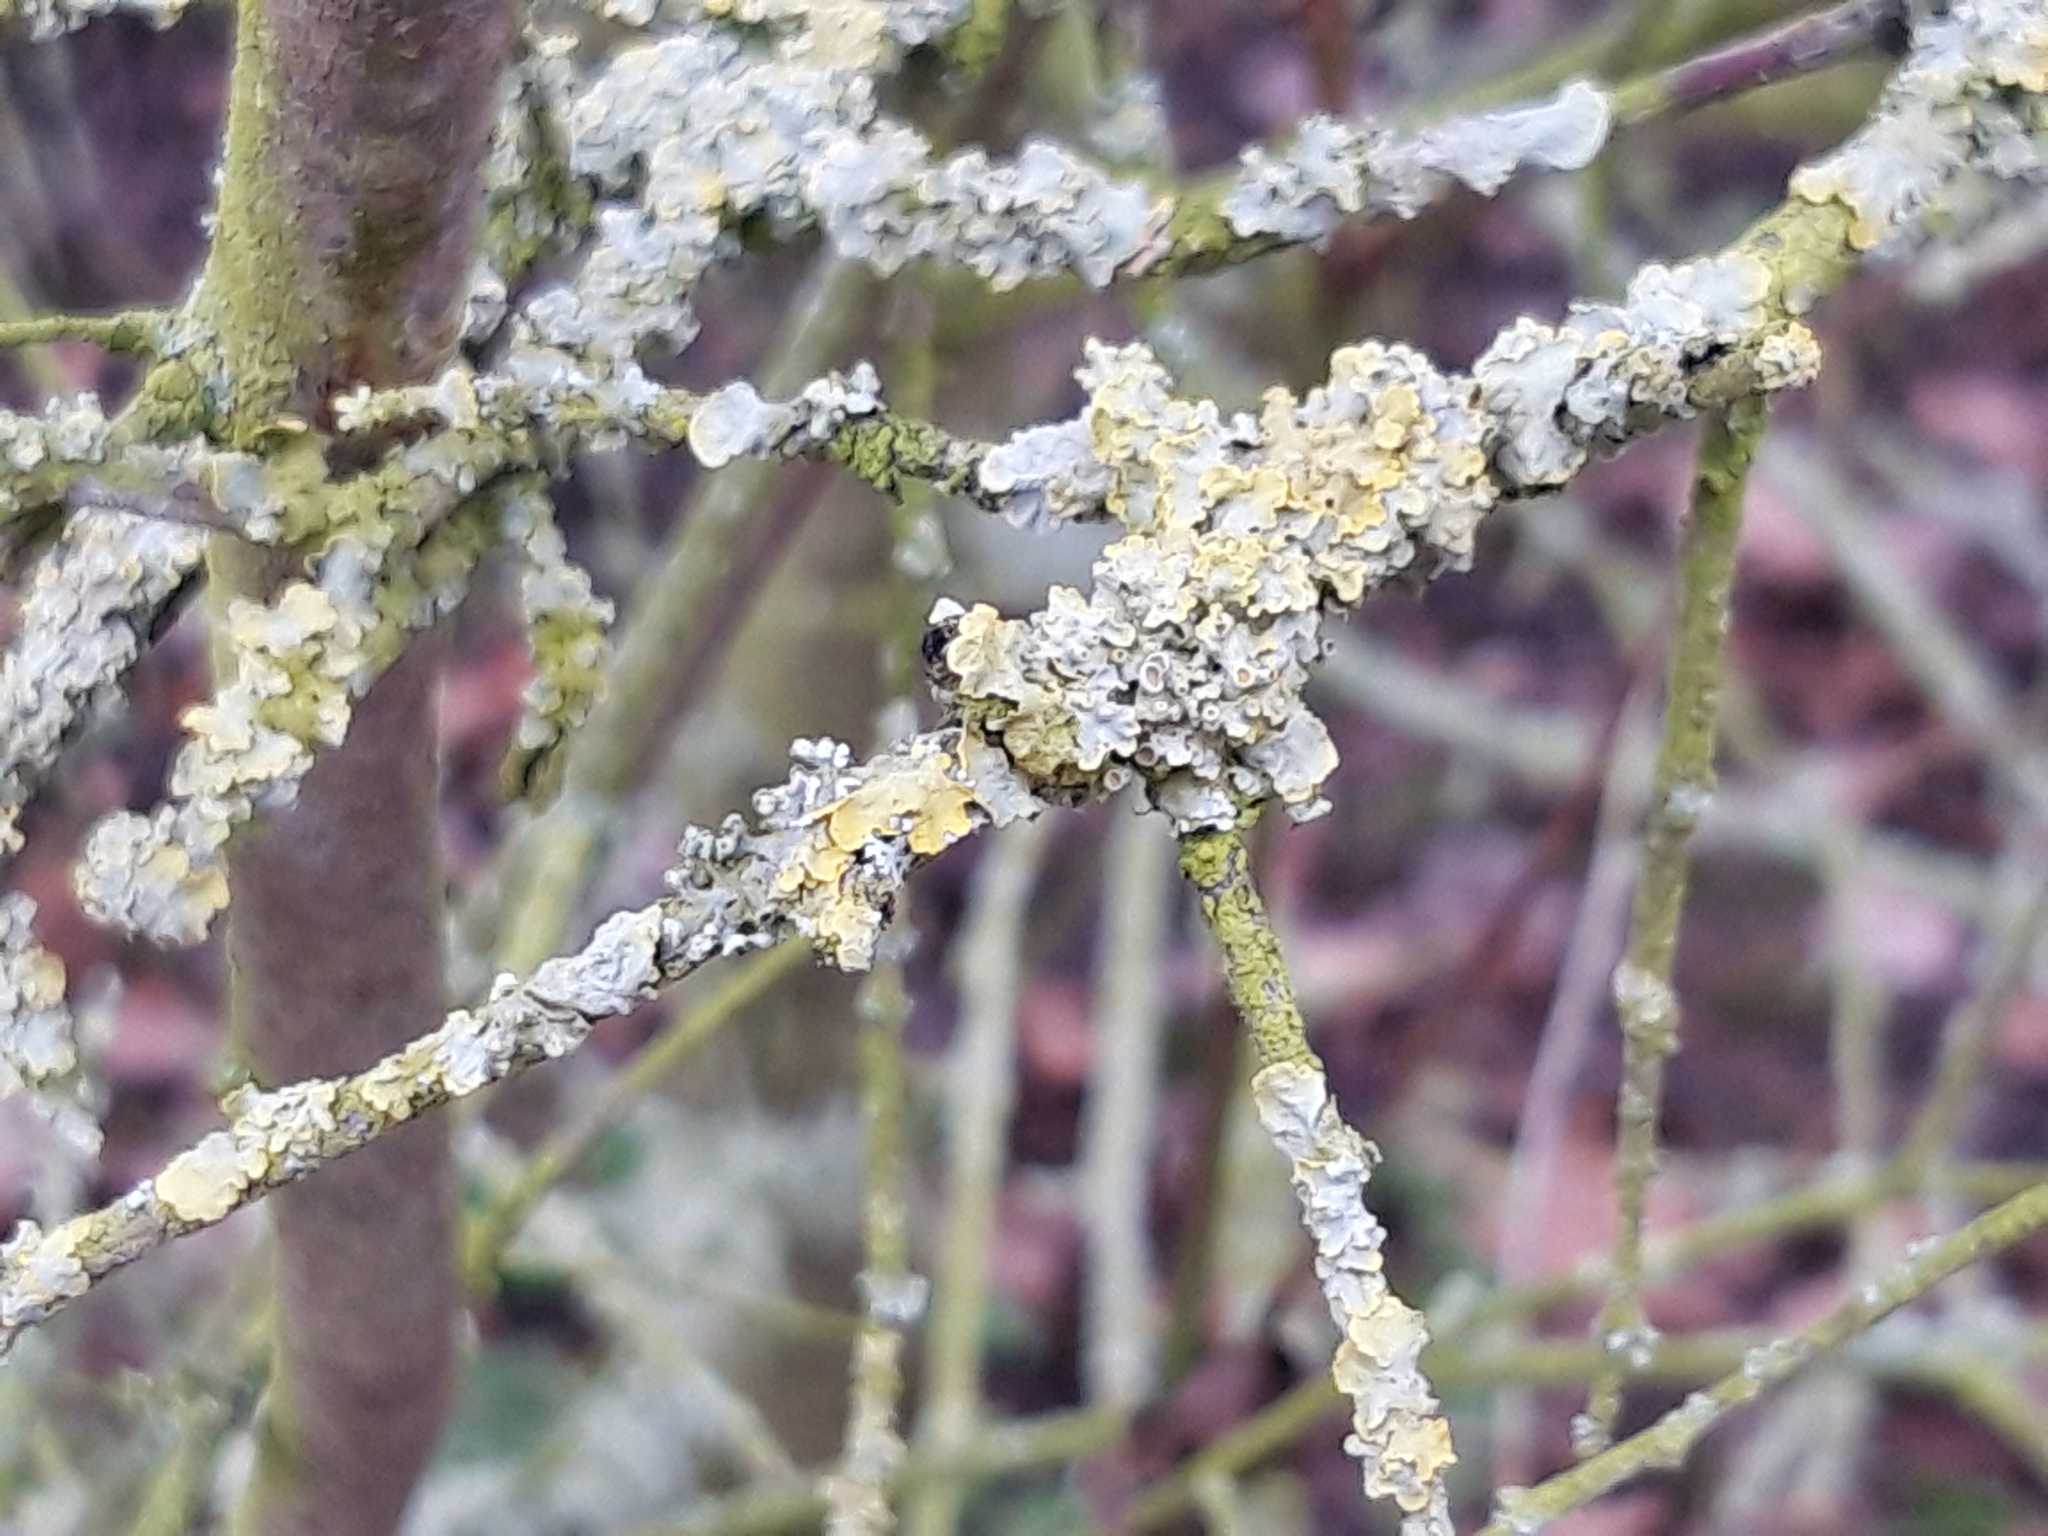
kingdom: Fungi
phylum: Ascomycota
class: Lecanoromycetes
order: Teloschistales
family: Teloschistaceae
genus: Xanthoria
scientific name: Xanthoria parietina
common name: Common orange lichen
